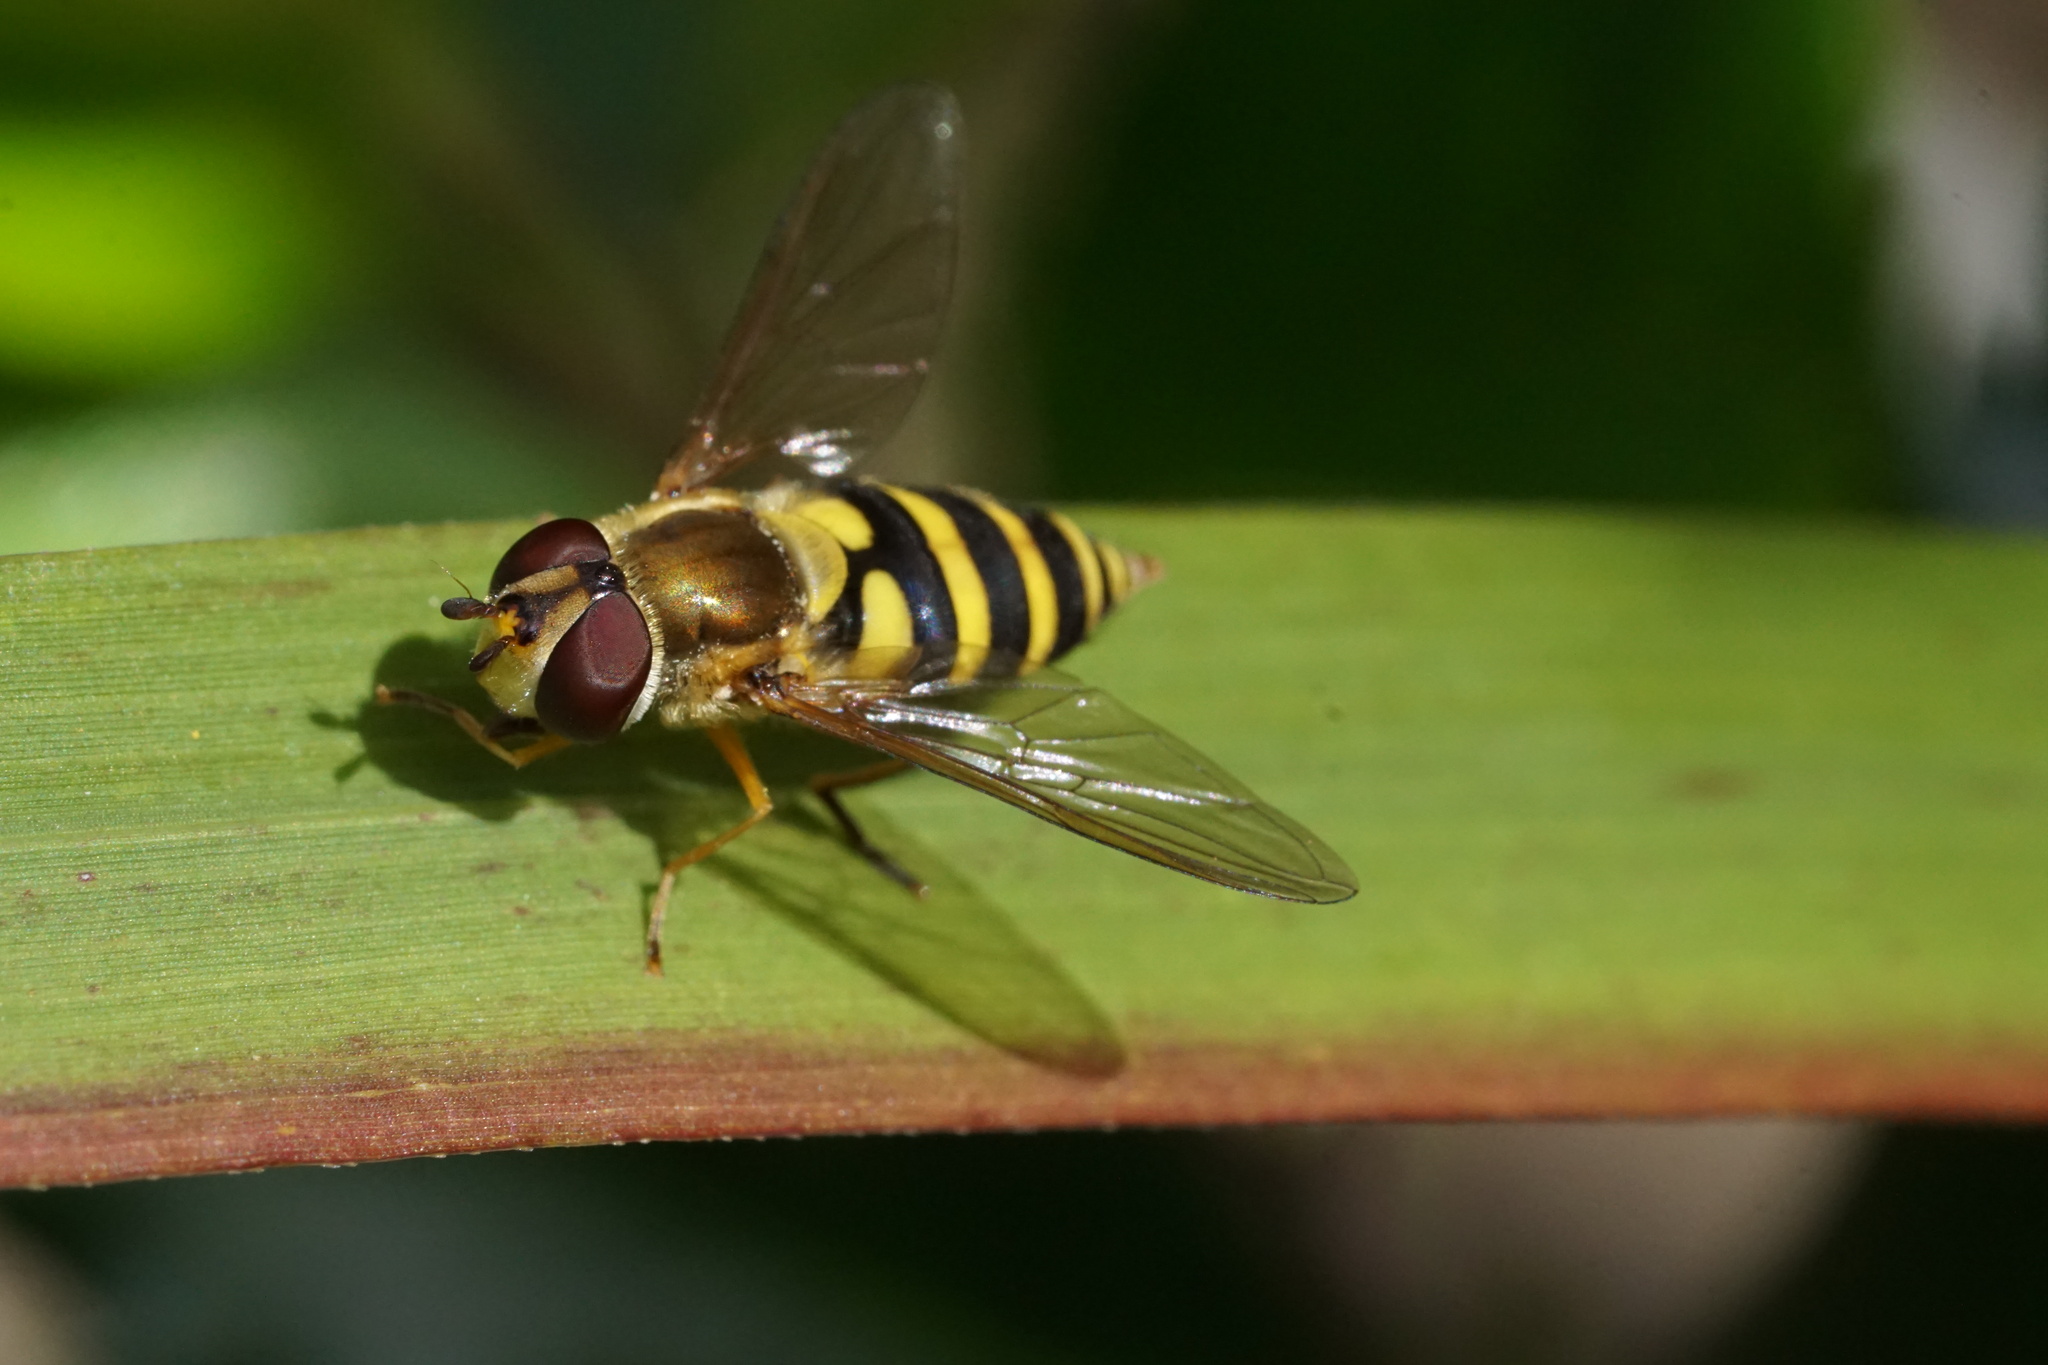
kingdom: Animalia
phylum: Arthropoda
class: Insecta
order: Diptera
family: Syrphidae
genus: Syrphus
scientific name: Syrphus
